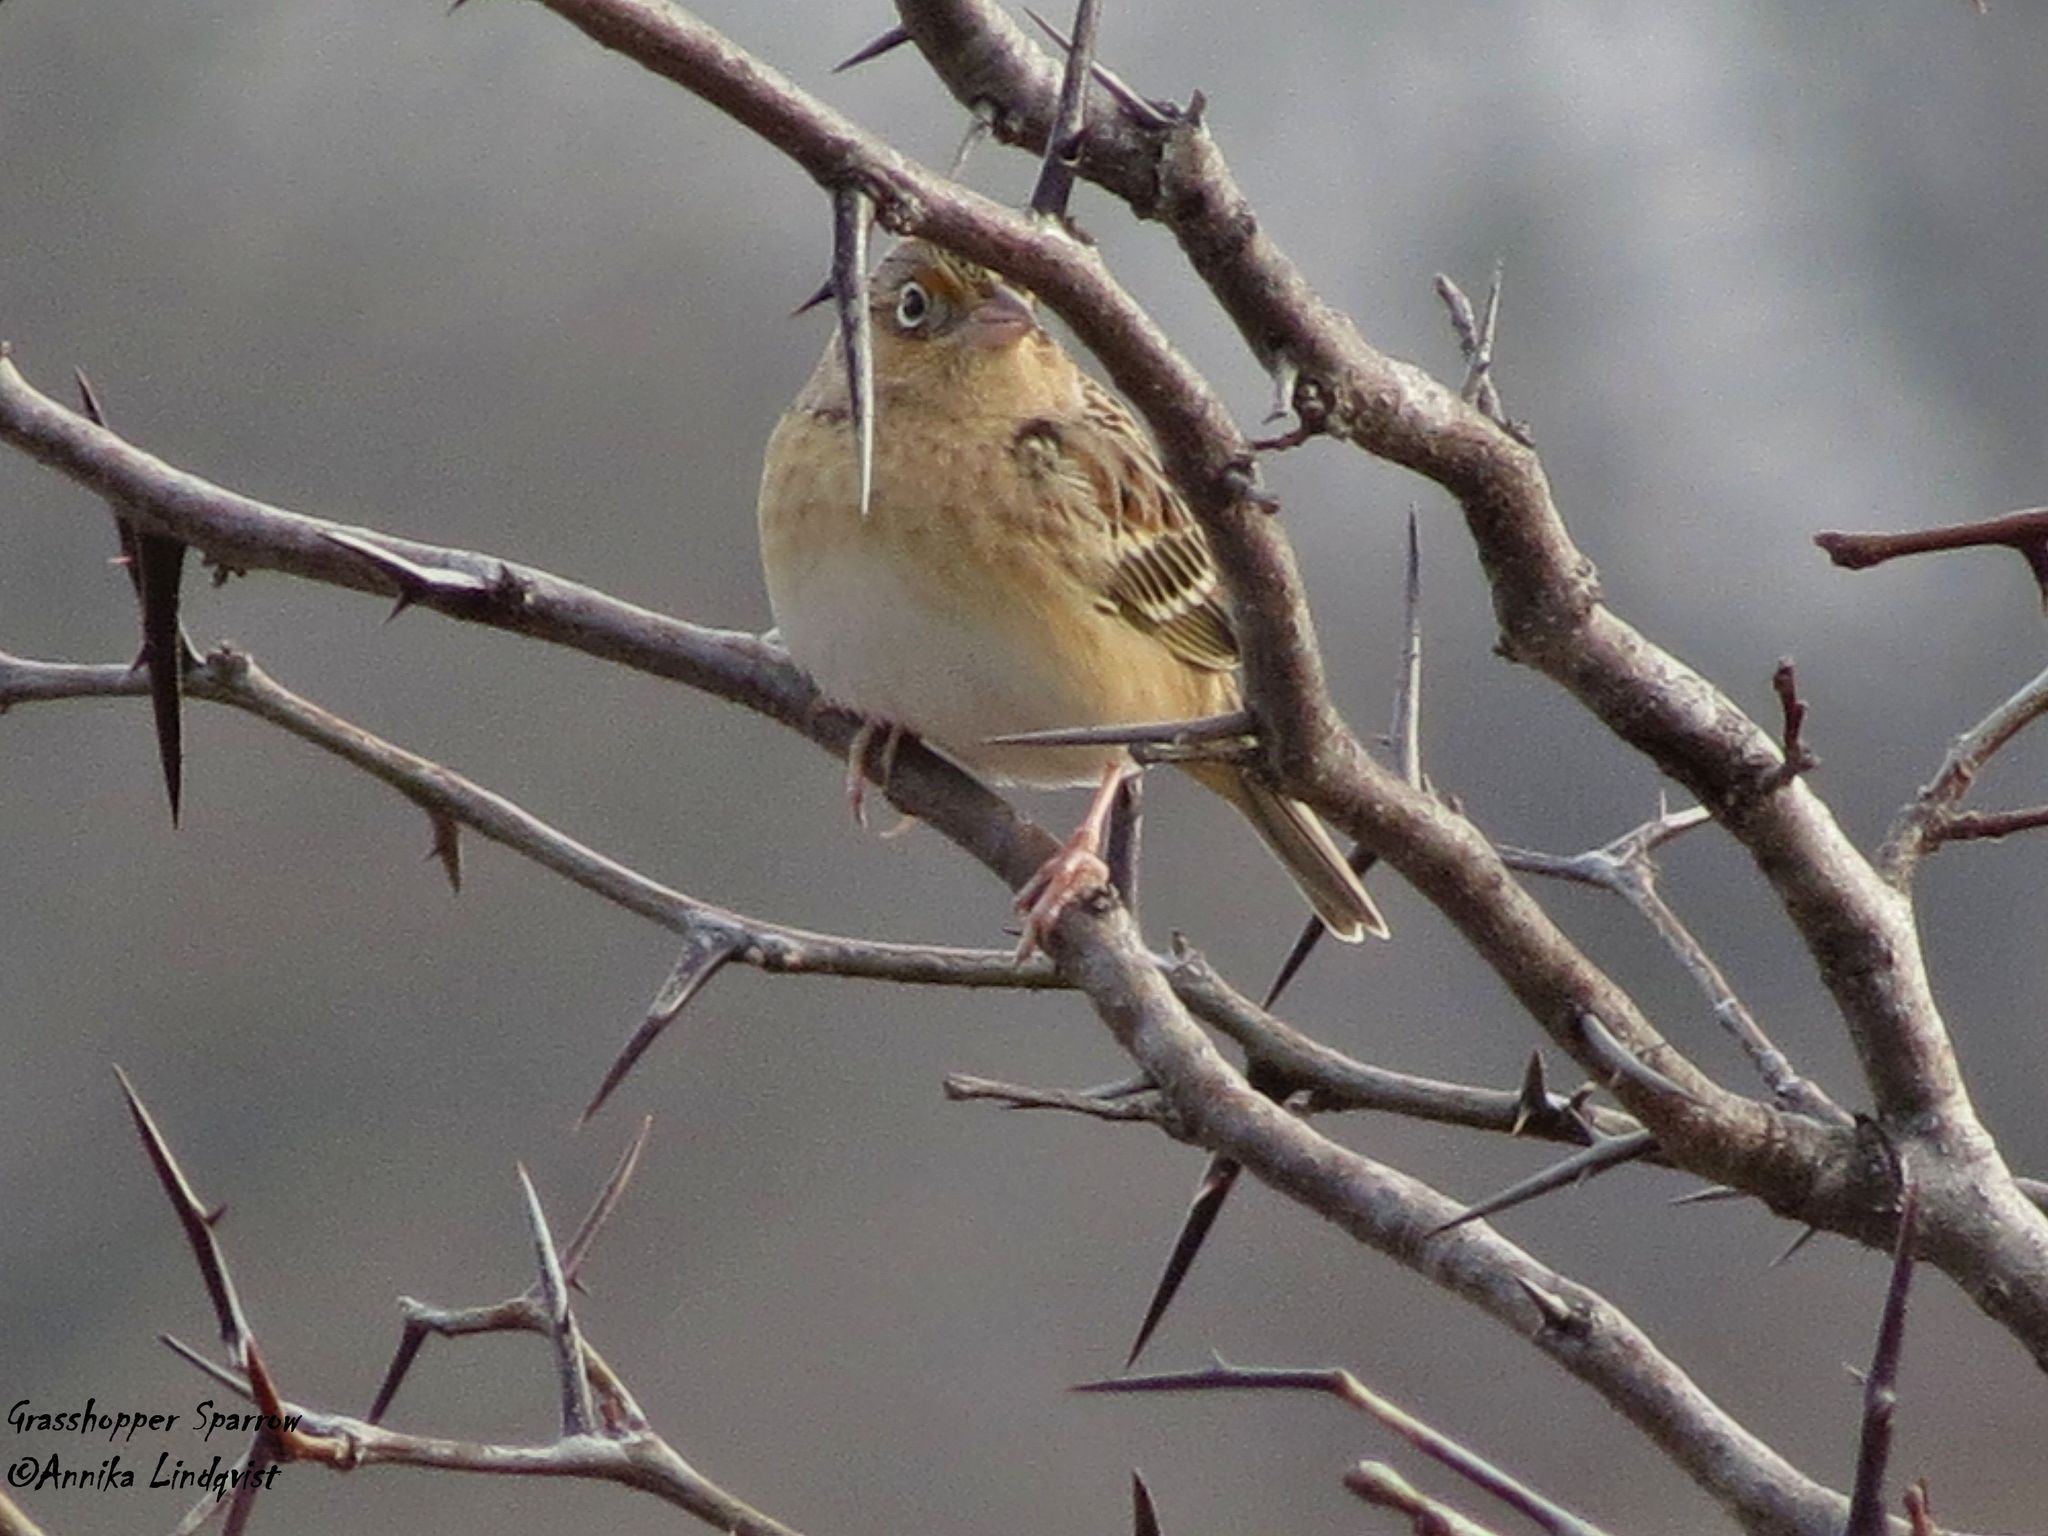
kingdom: Animalia
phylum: Chordata
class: Aves
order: Passeriformes
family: Passerellidae
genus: Ammodramus
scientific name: Ammodramus savannarum
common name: Grasshopper sparrow
